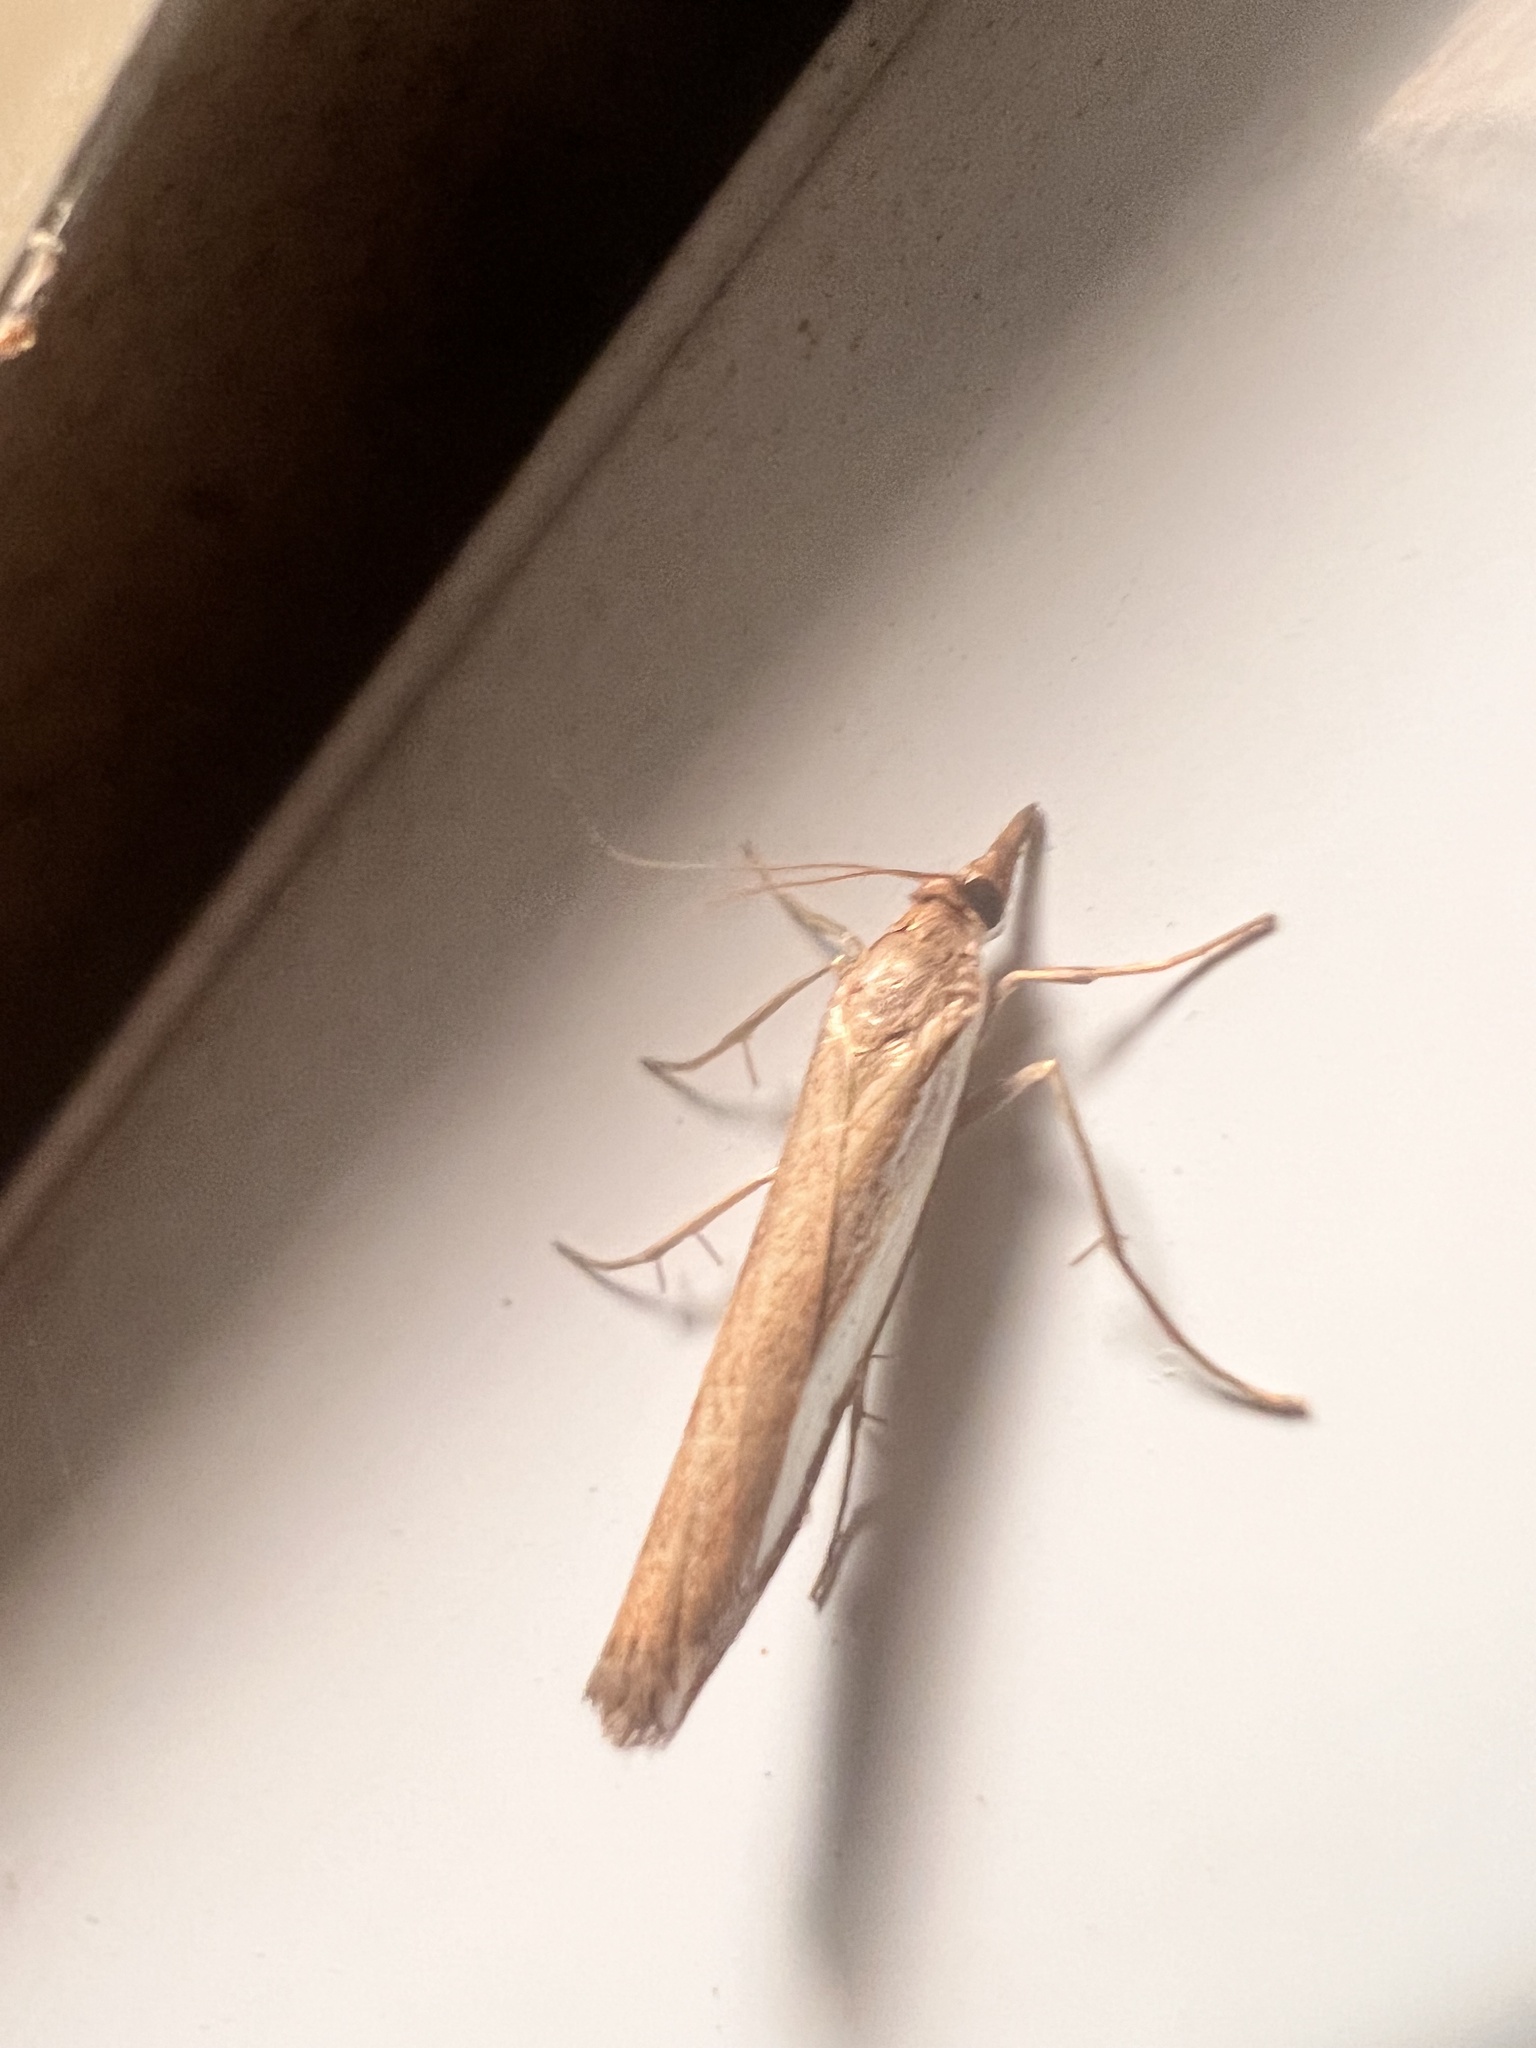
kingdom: Animalia
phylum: Arthropoda
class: Insecta
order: Lepidoptera
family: Crambidae
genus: Orocrambus
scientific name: Orocrambus flexuosellus
